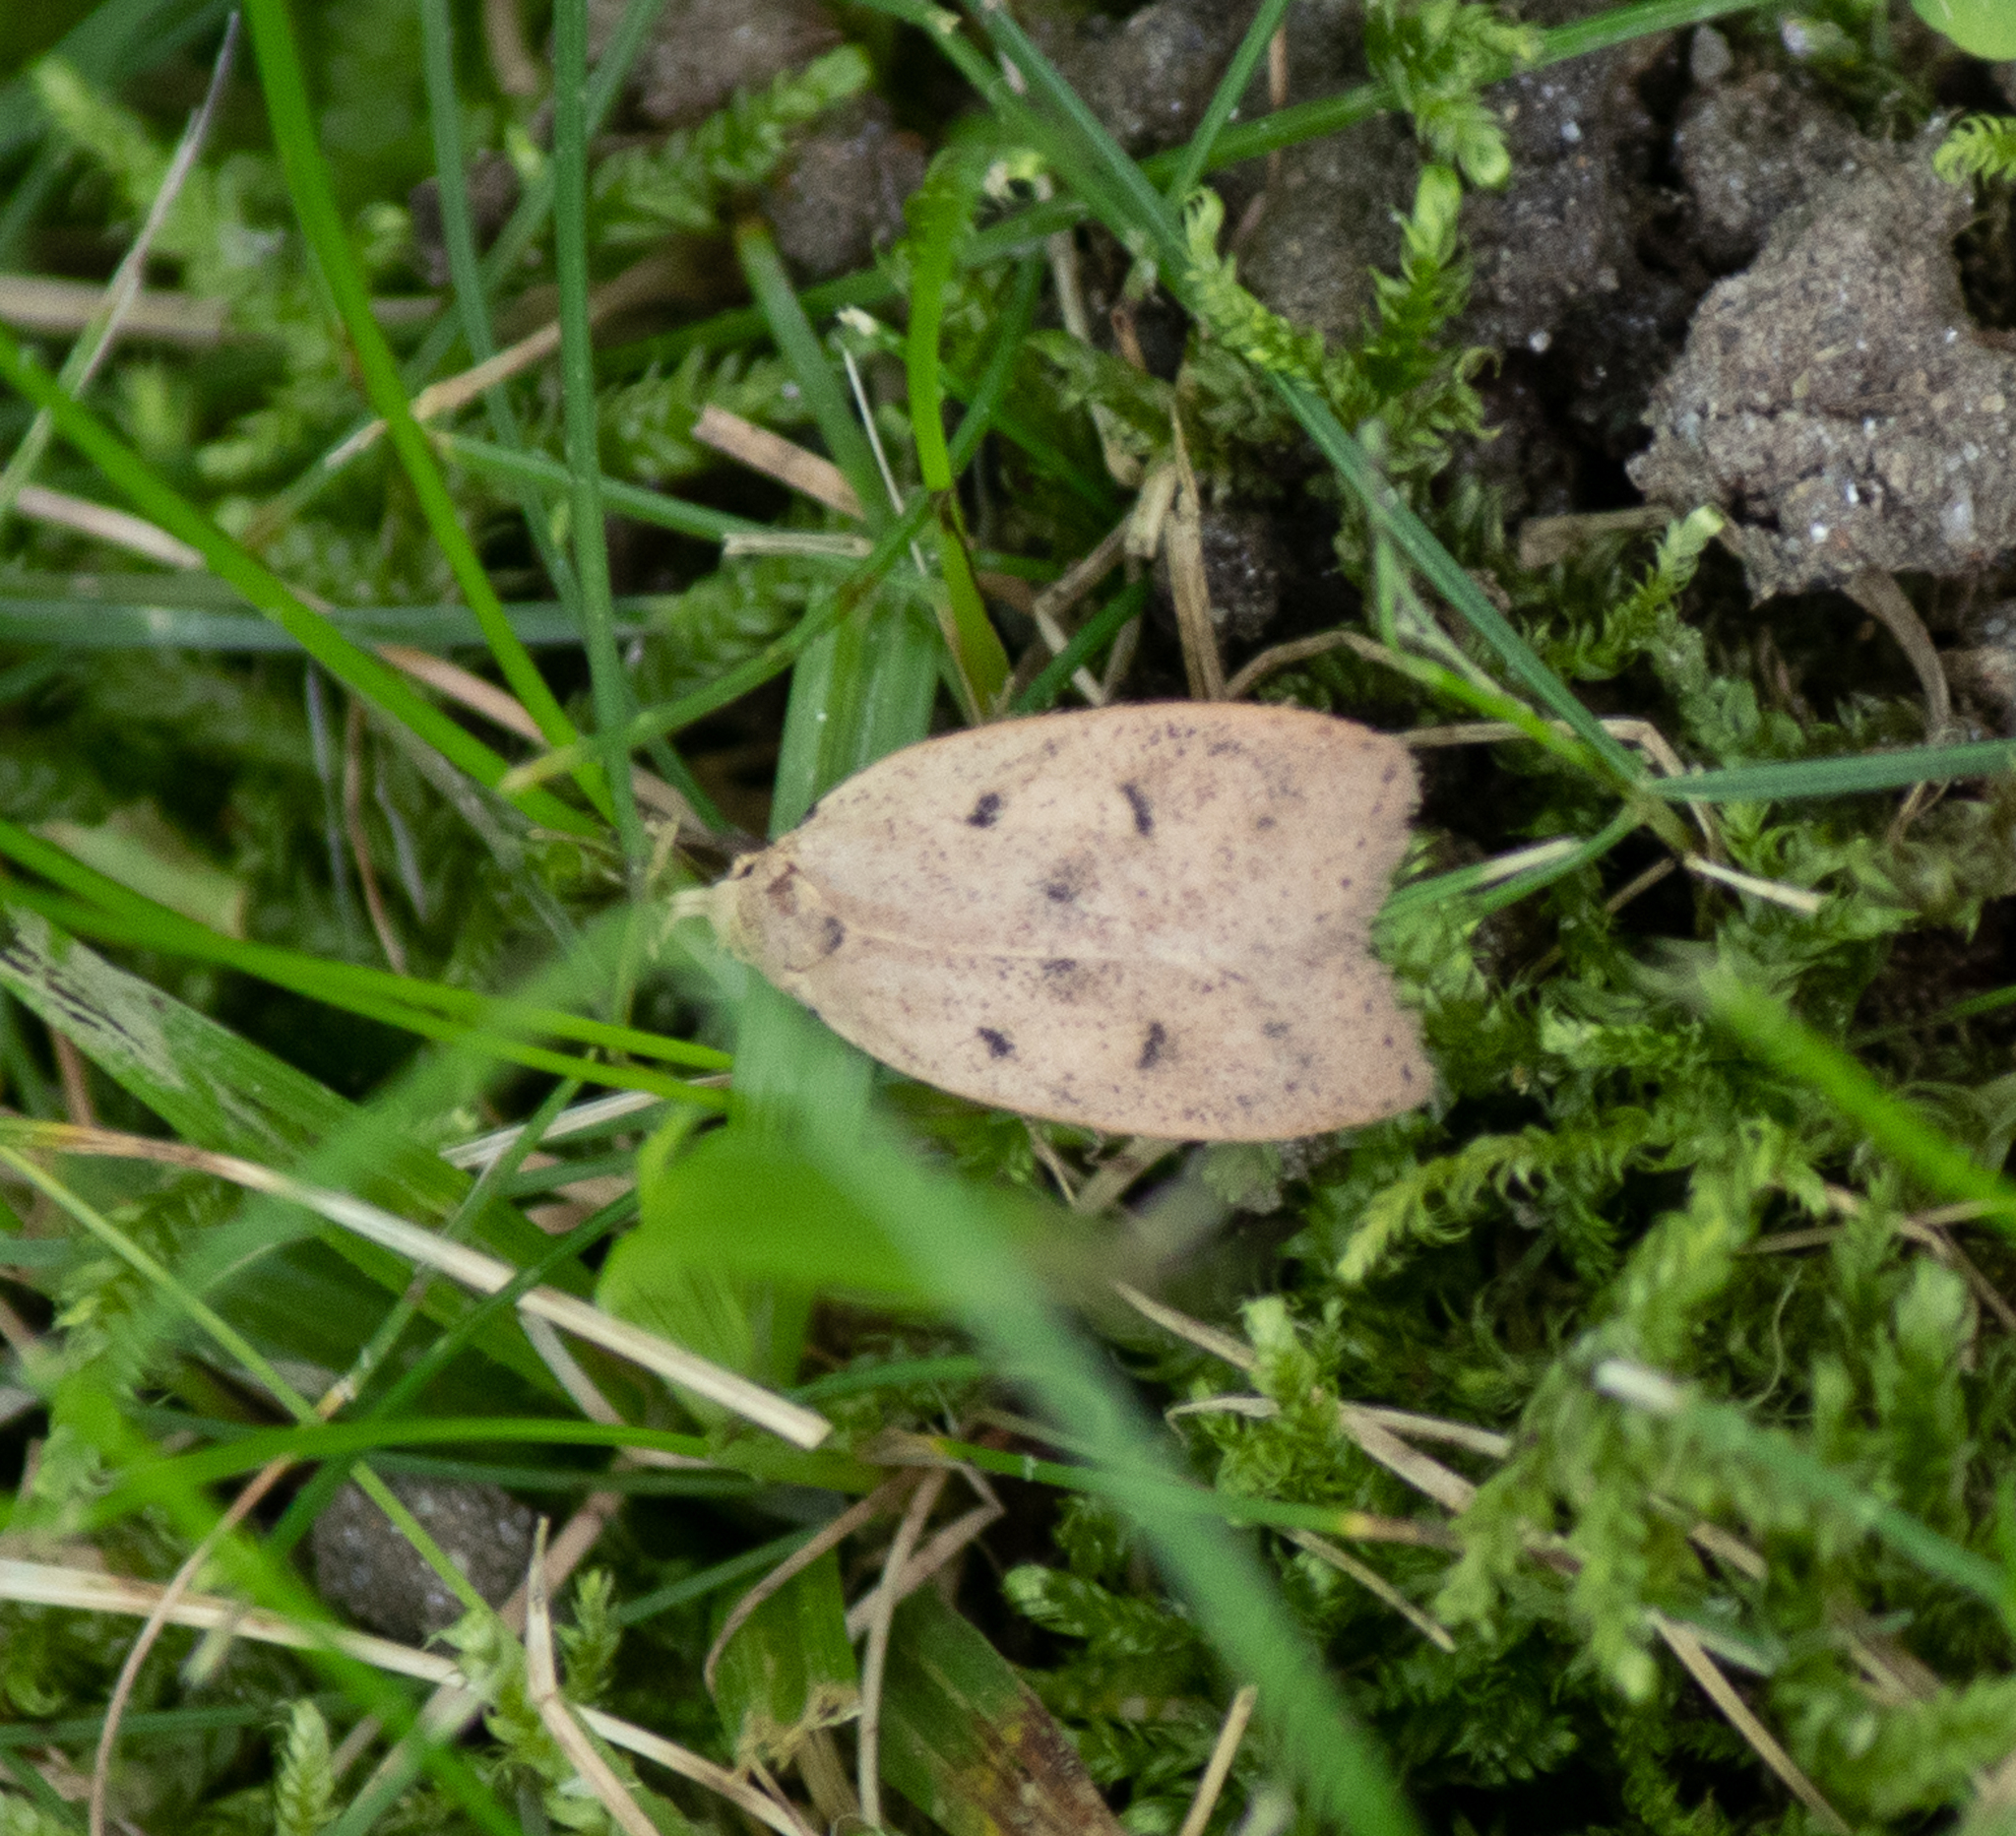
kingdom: Animalia
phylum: Arthropoda
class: Insecta
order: Lepidoptera
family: Peleopodidae
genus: Machimia
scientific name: Machimia tentoriferella
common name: Gold-striped leaftier moth
